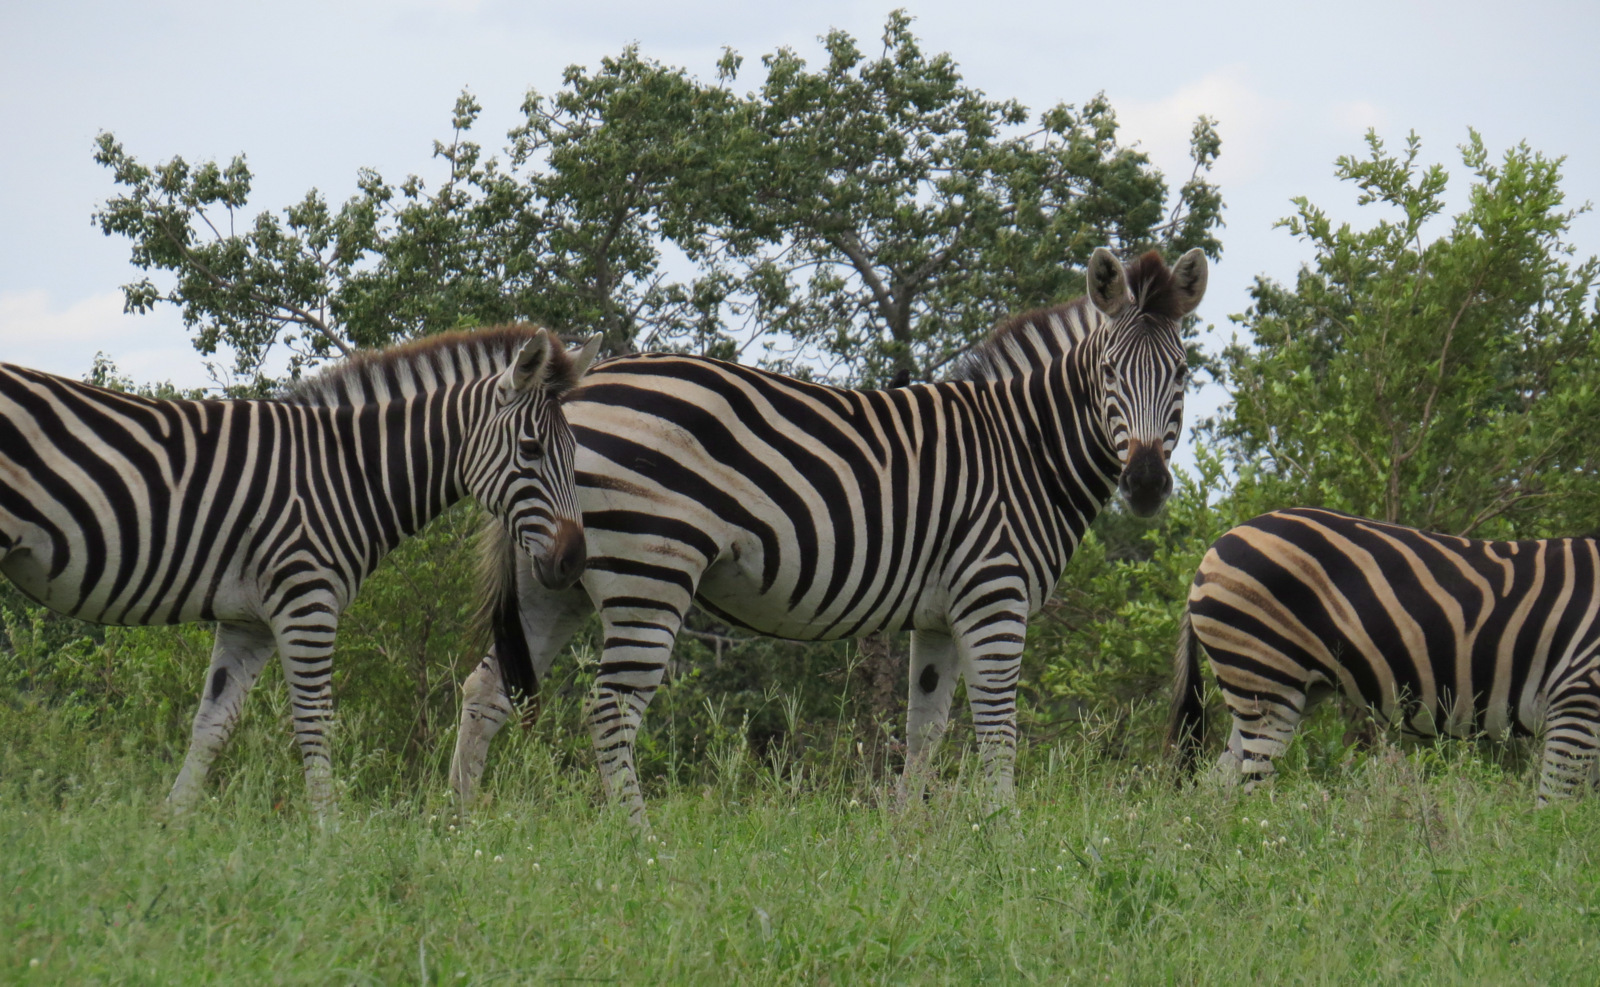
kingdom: Animalia
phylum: Chordata
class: Mammalia
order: Perissodactyla
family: Equidae
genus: Equus
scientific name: Equus quagga
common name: Plains zebra
